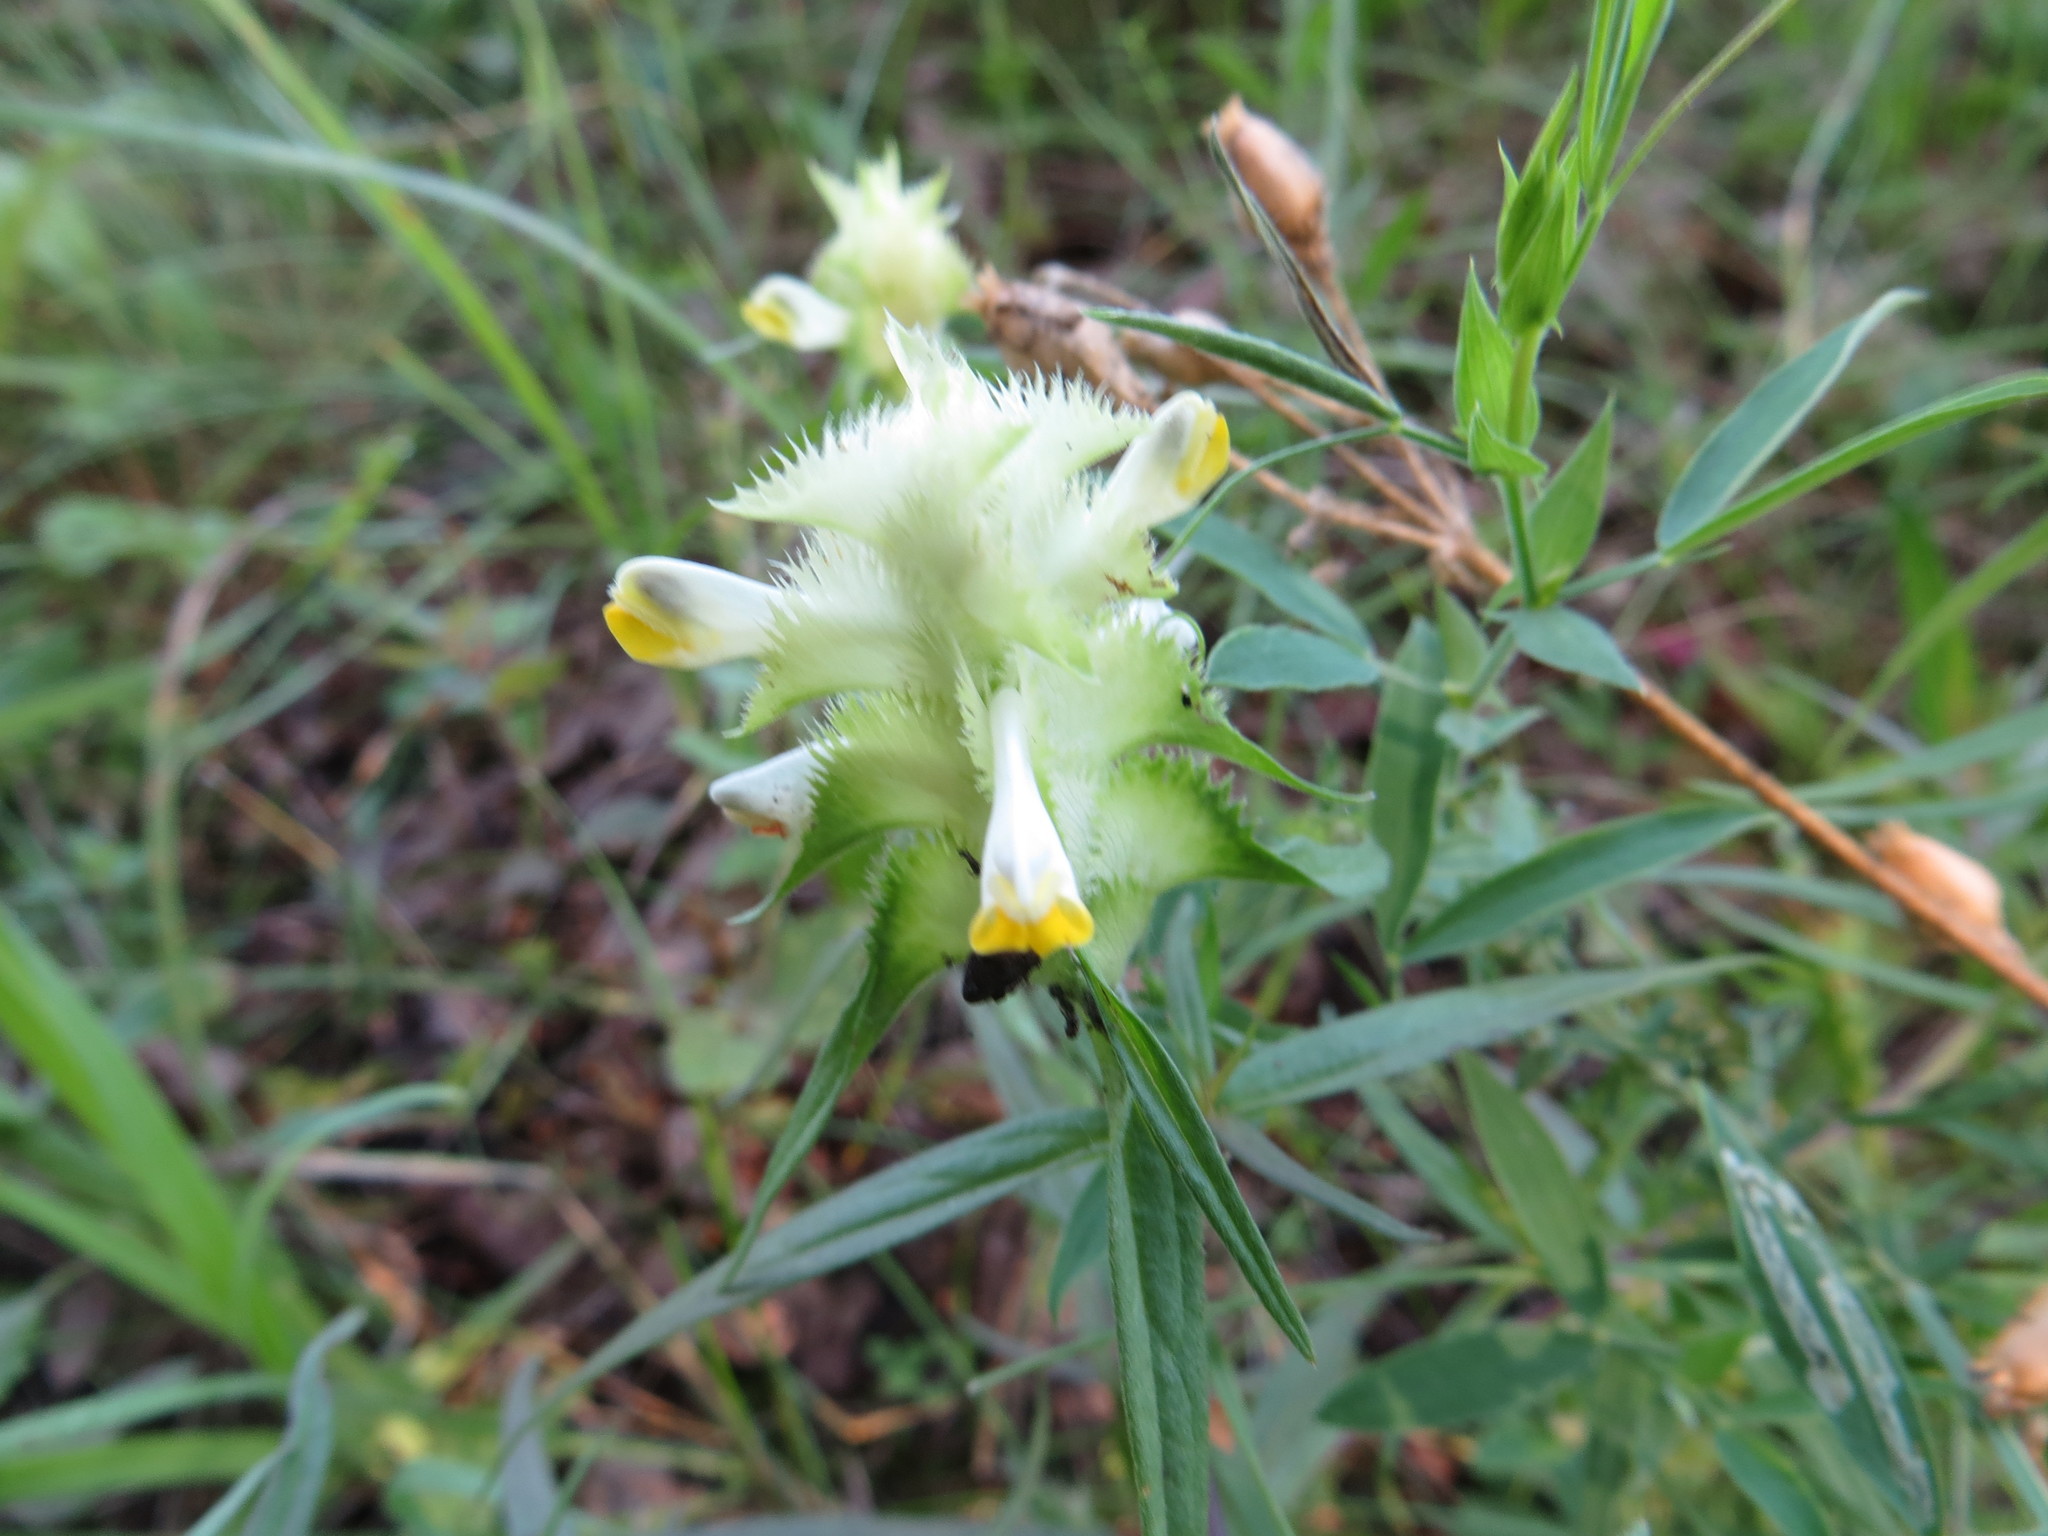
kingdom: Plantae
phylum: Tracheophyta
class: Magnoliopsida
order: Lamiales
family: Orobanchaceae
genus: Melampyrum
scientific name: Melampyrum cristatum
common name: Crested cow-wheat
